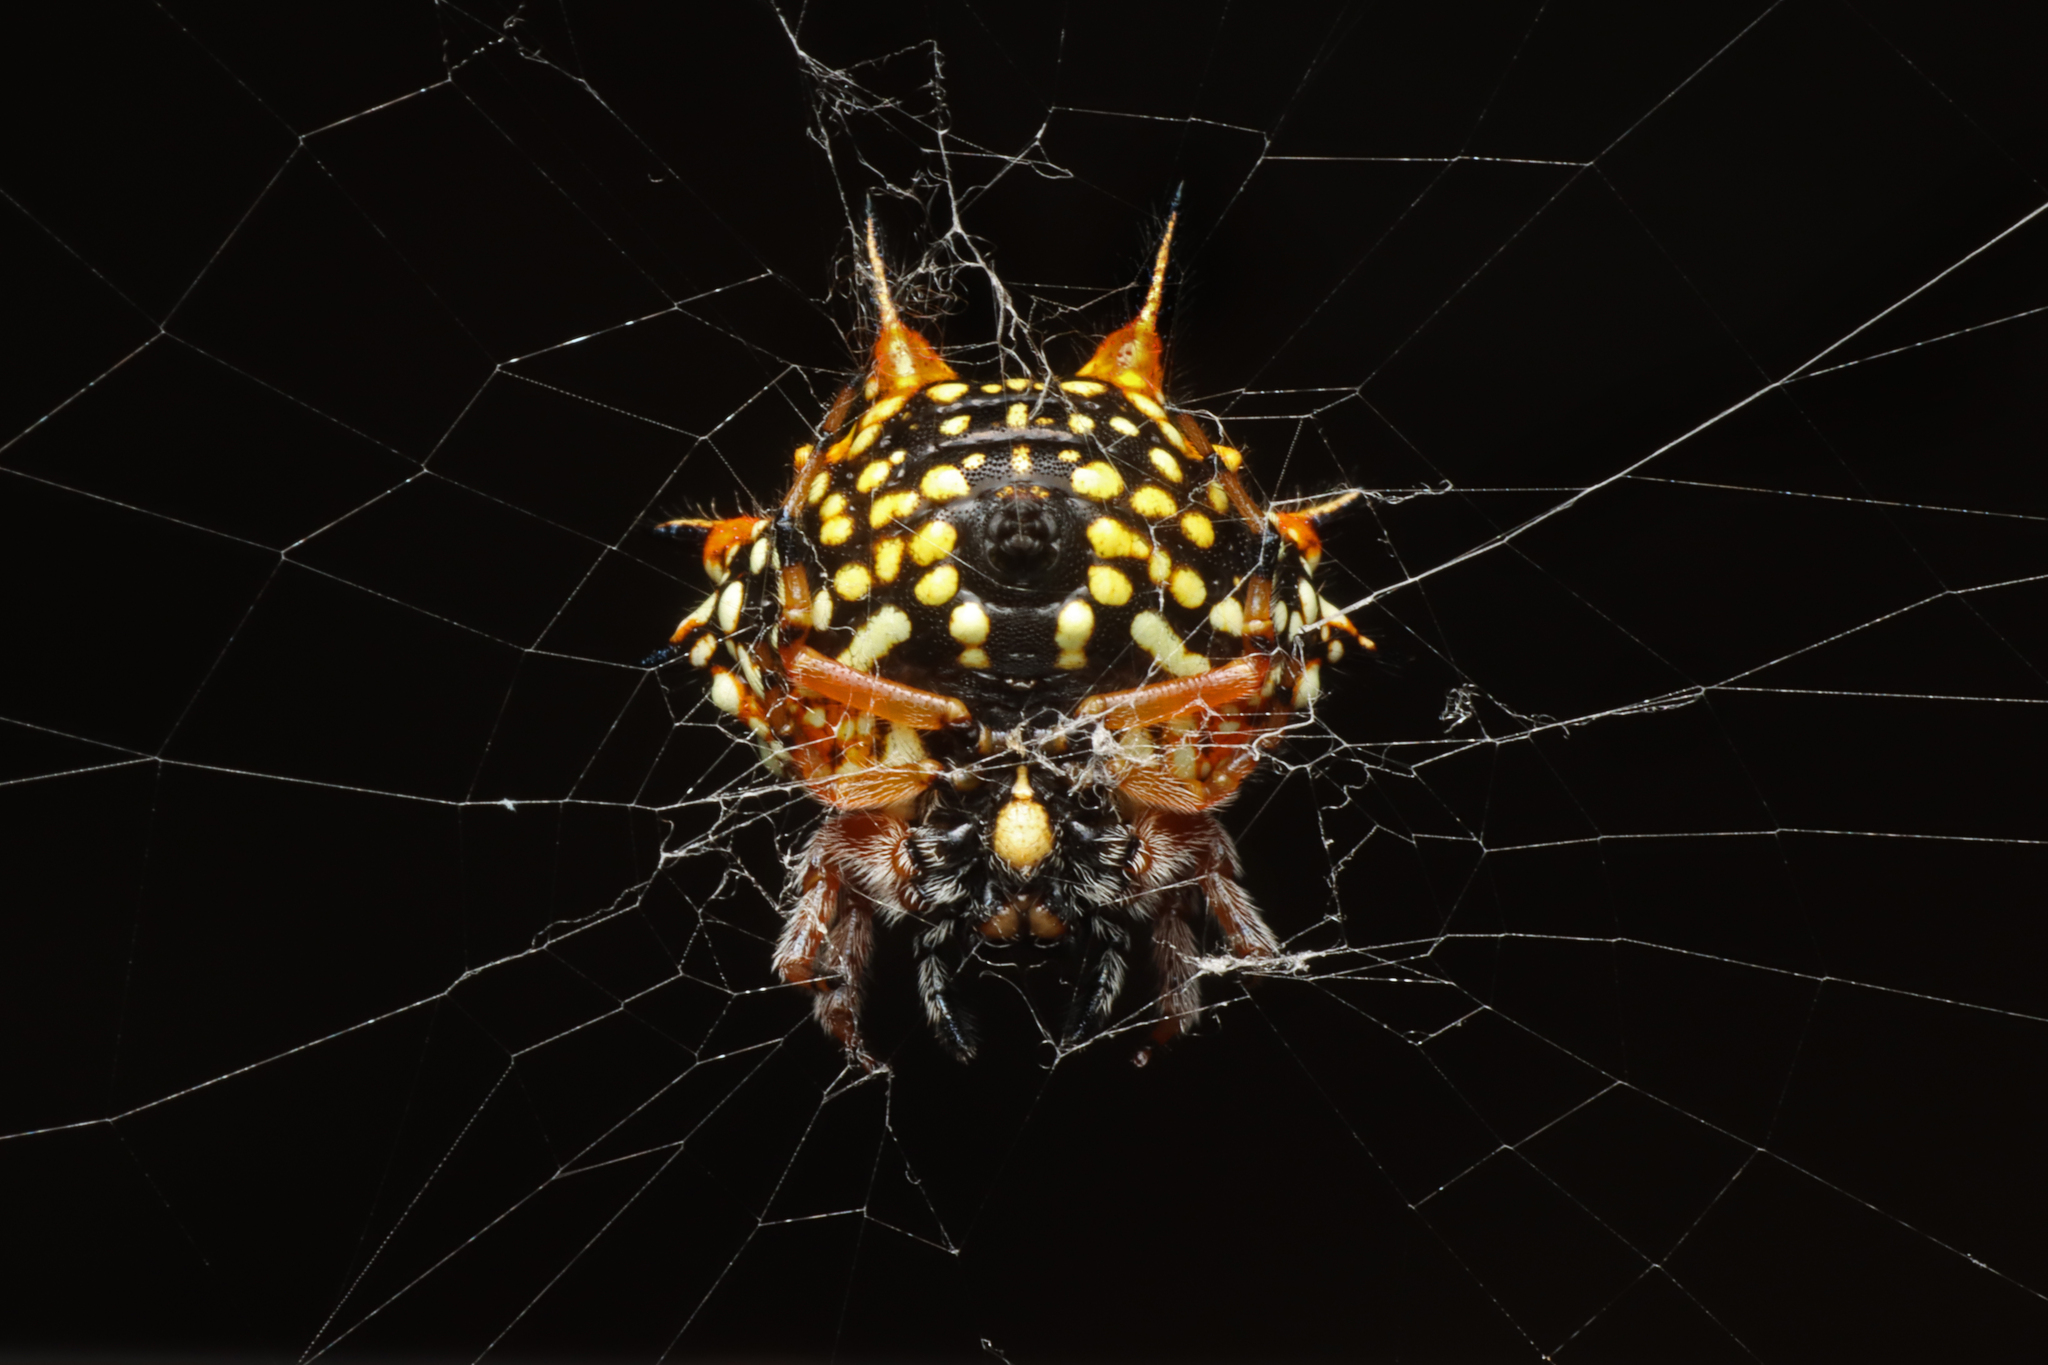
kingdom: Animalia
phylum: Arthropoda
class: Arachnida
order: Araneae
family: Araneidae
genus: Austracantha
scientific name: Austracantha minax
